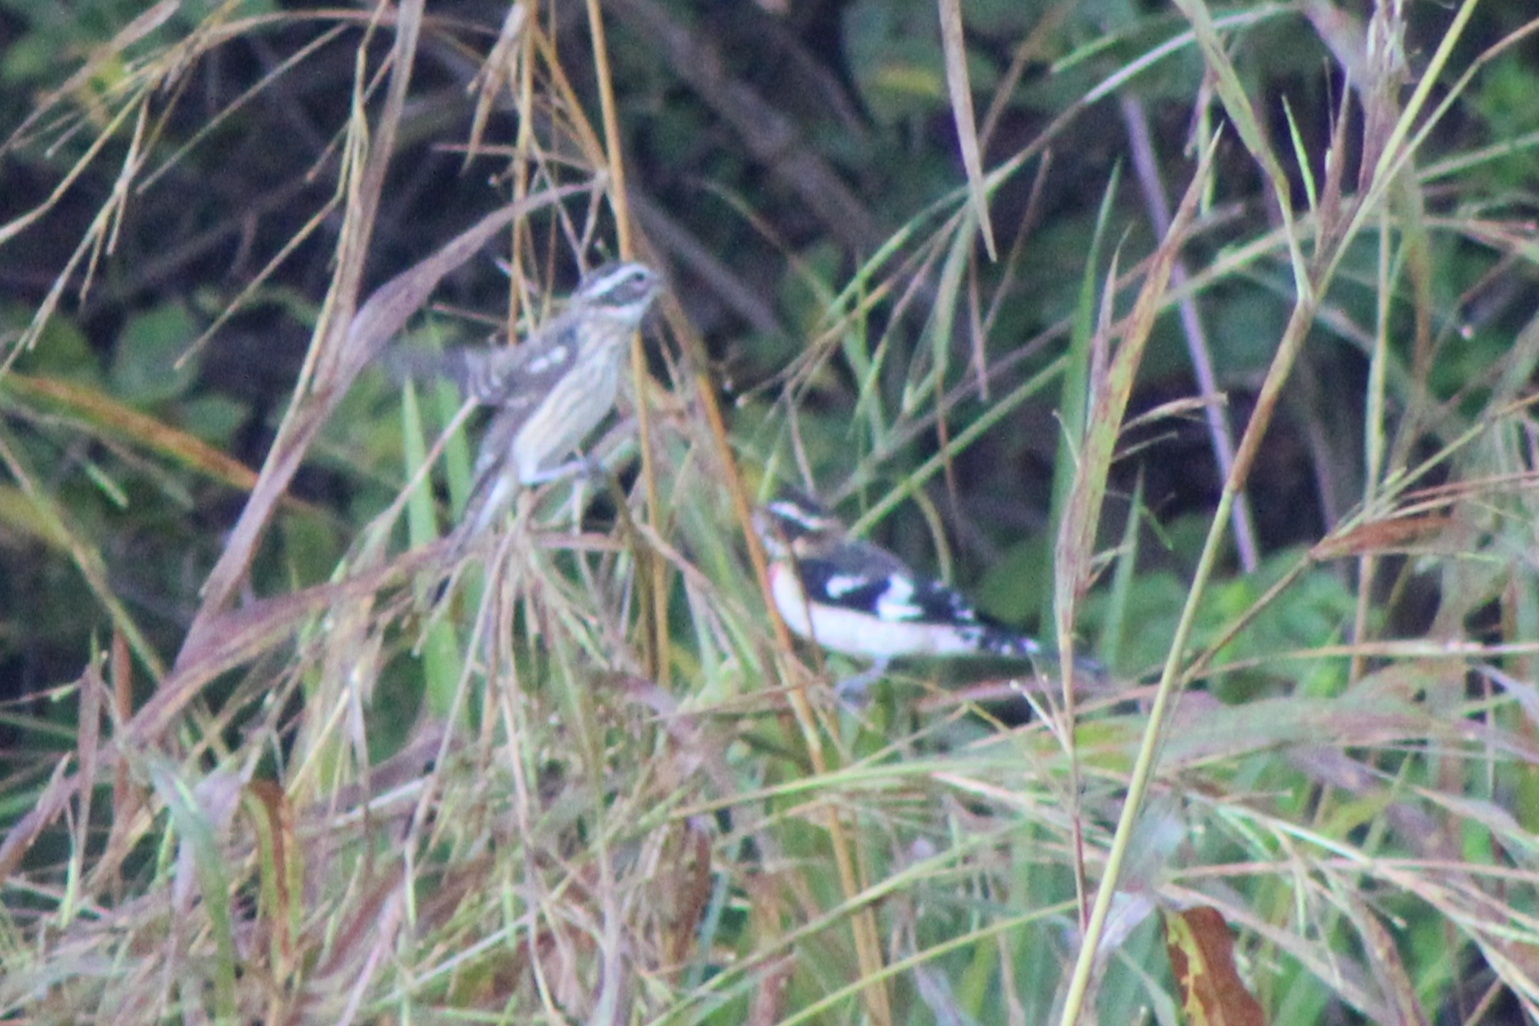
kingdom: Animalia
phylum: Chordata
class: Aves
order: Passeriformes
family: Cardinalidae
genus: Pheucticus
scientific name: Pheucticus ludovicianus
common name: Rose-breasted grosbeak
